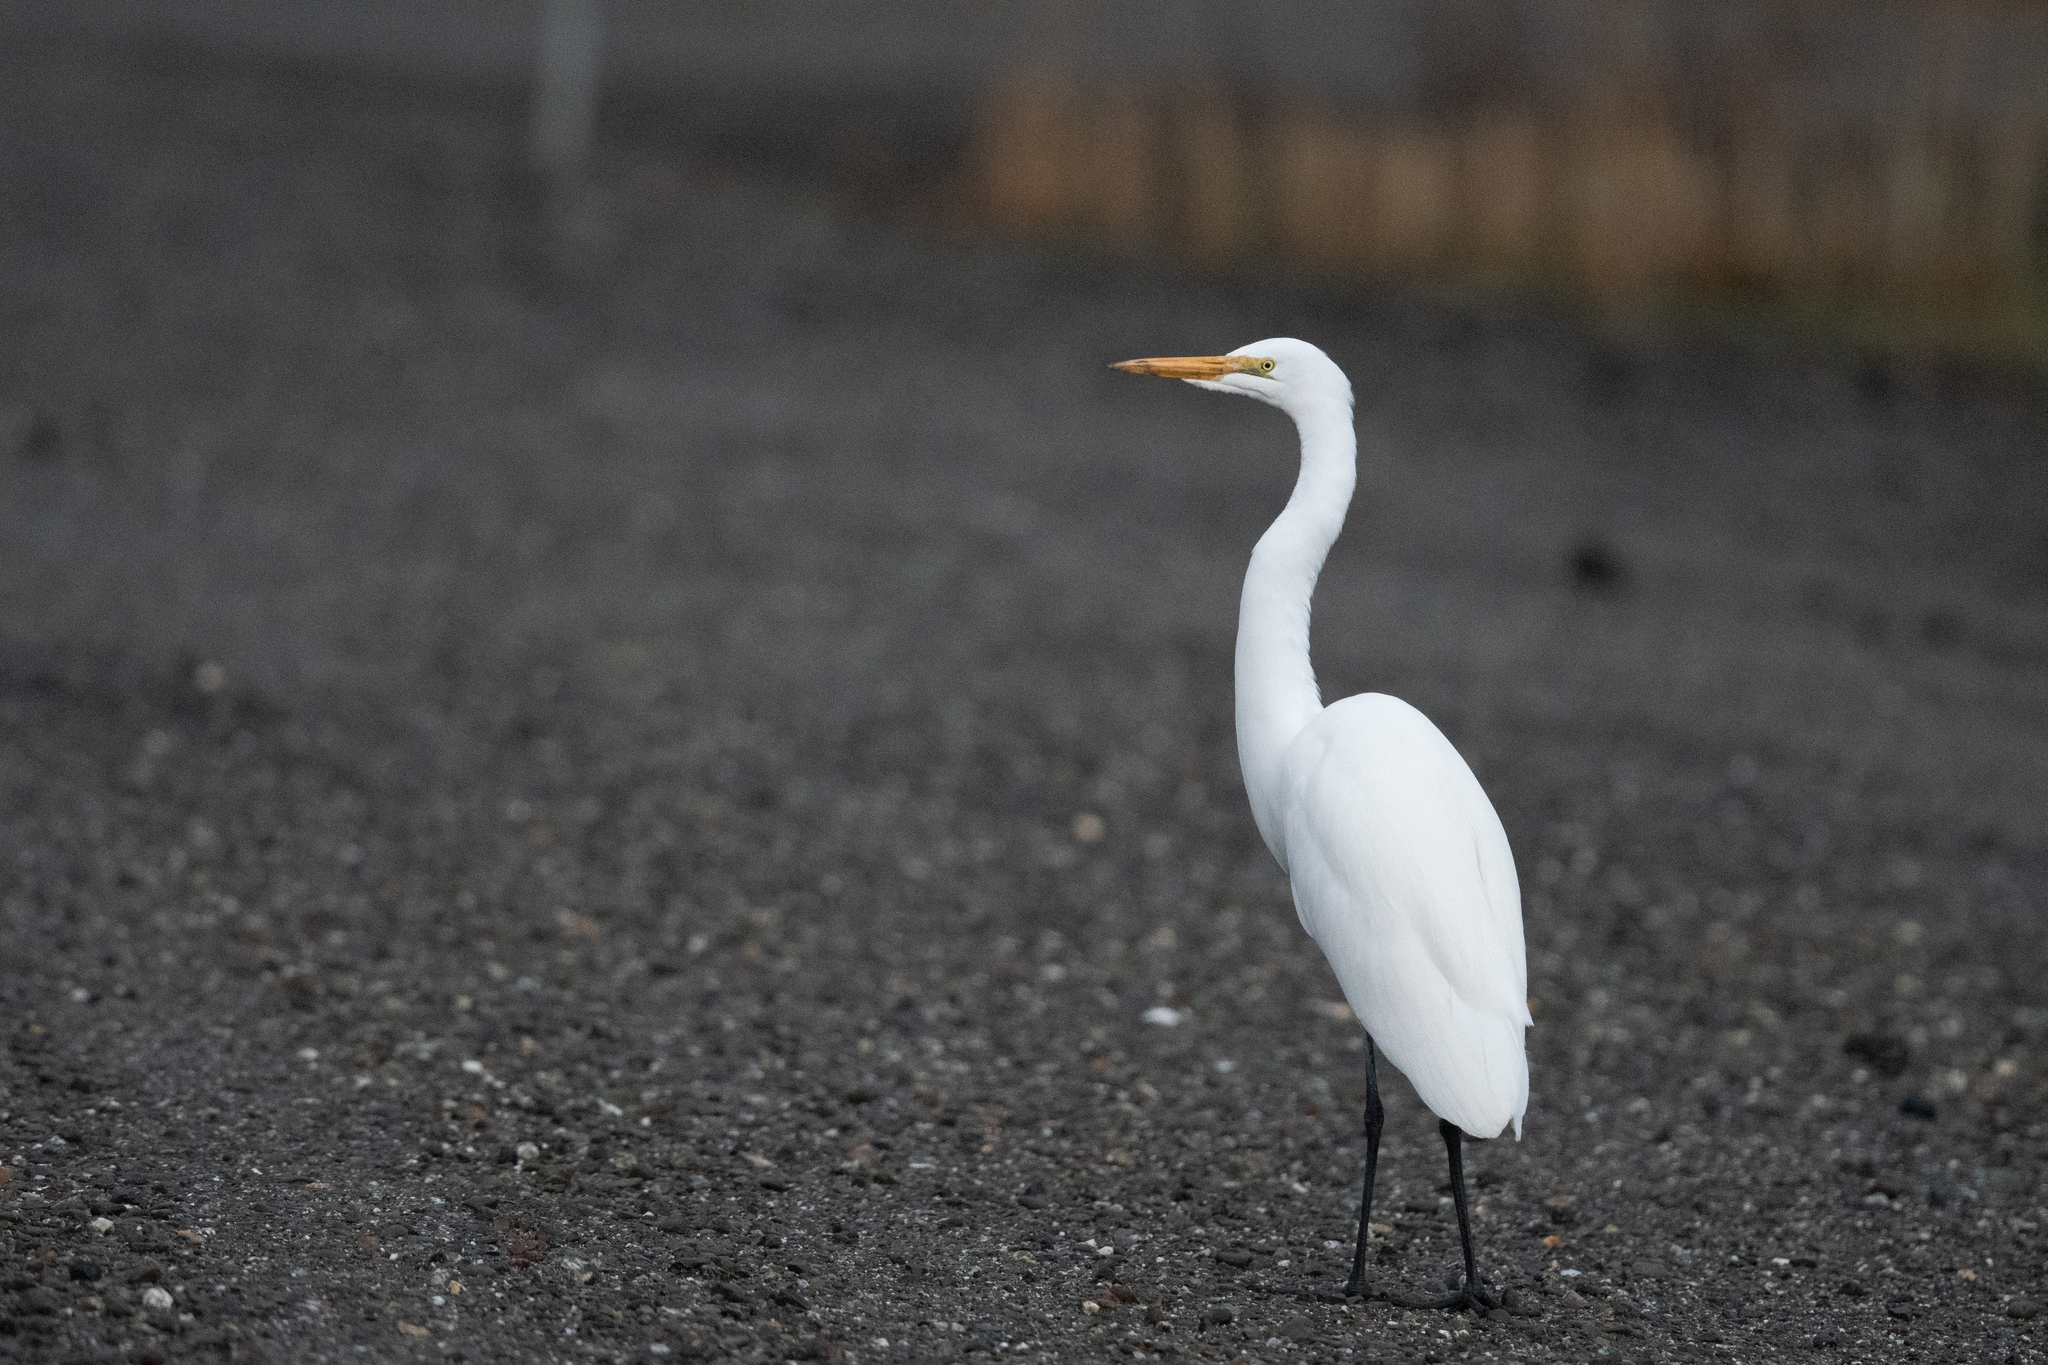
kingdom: Animalia
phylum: Chordata
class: Aves
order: Pelecaniformes
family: Ardeidae
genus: Ardea
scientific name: Ardea alba
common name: Great egret
